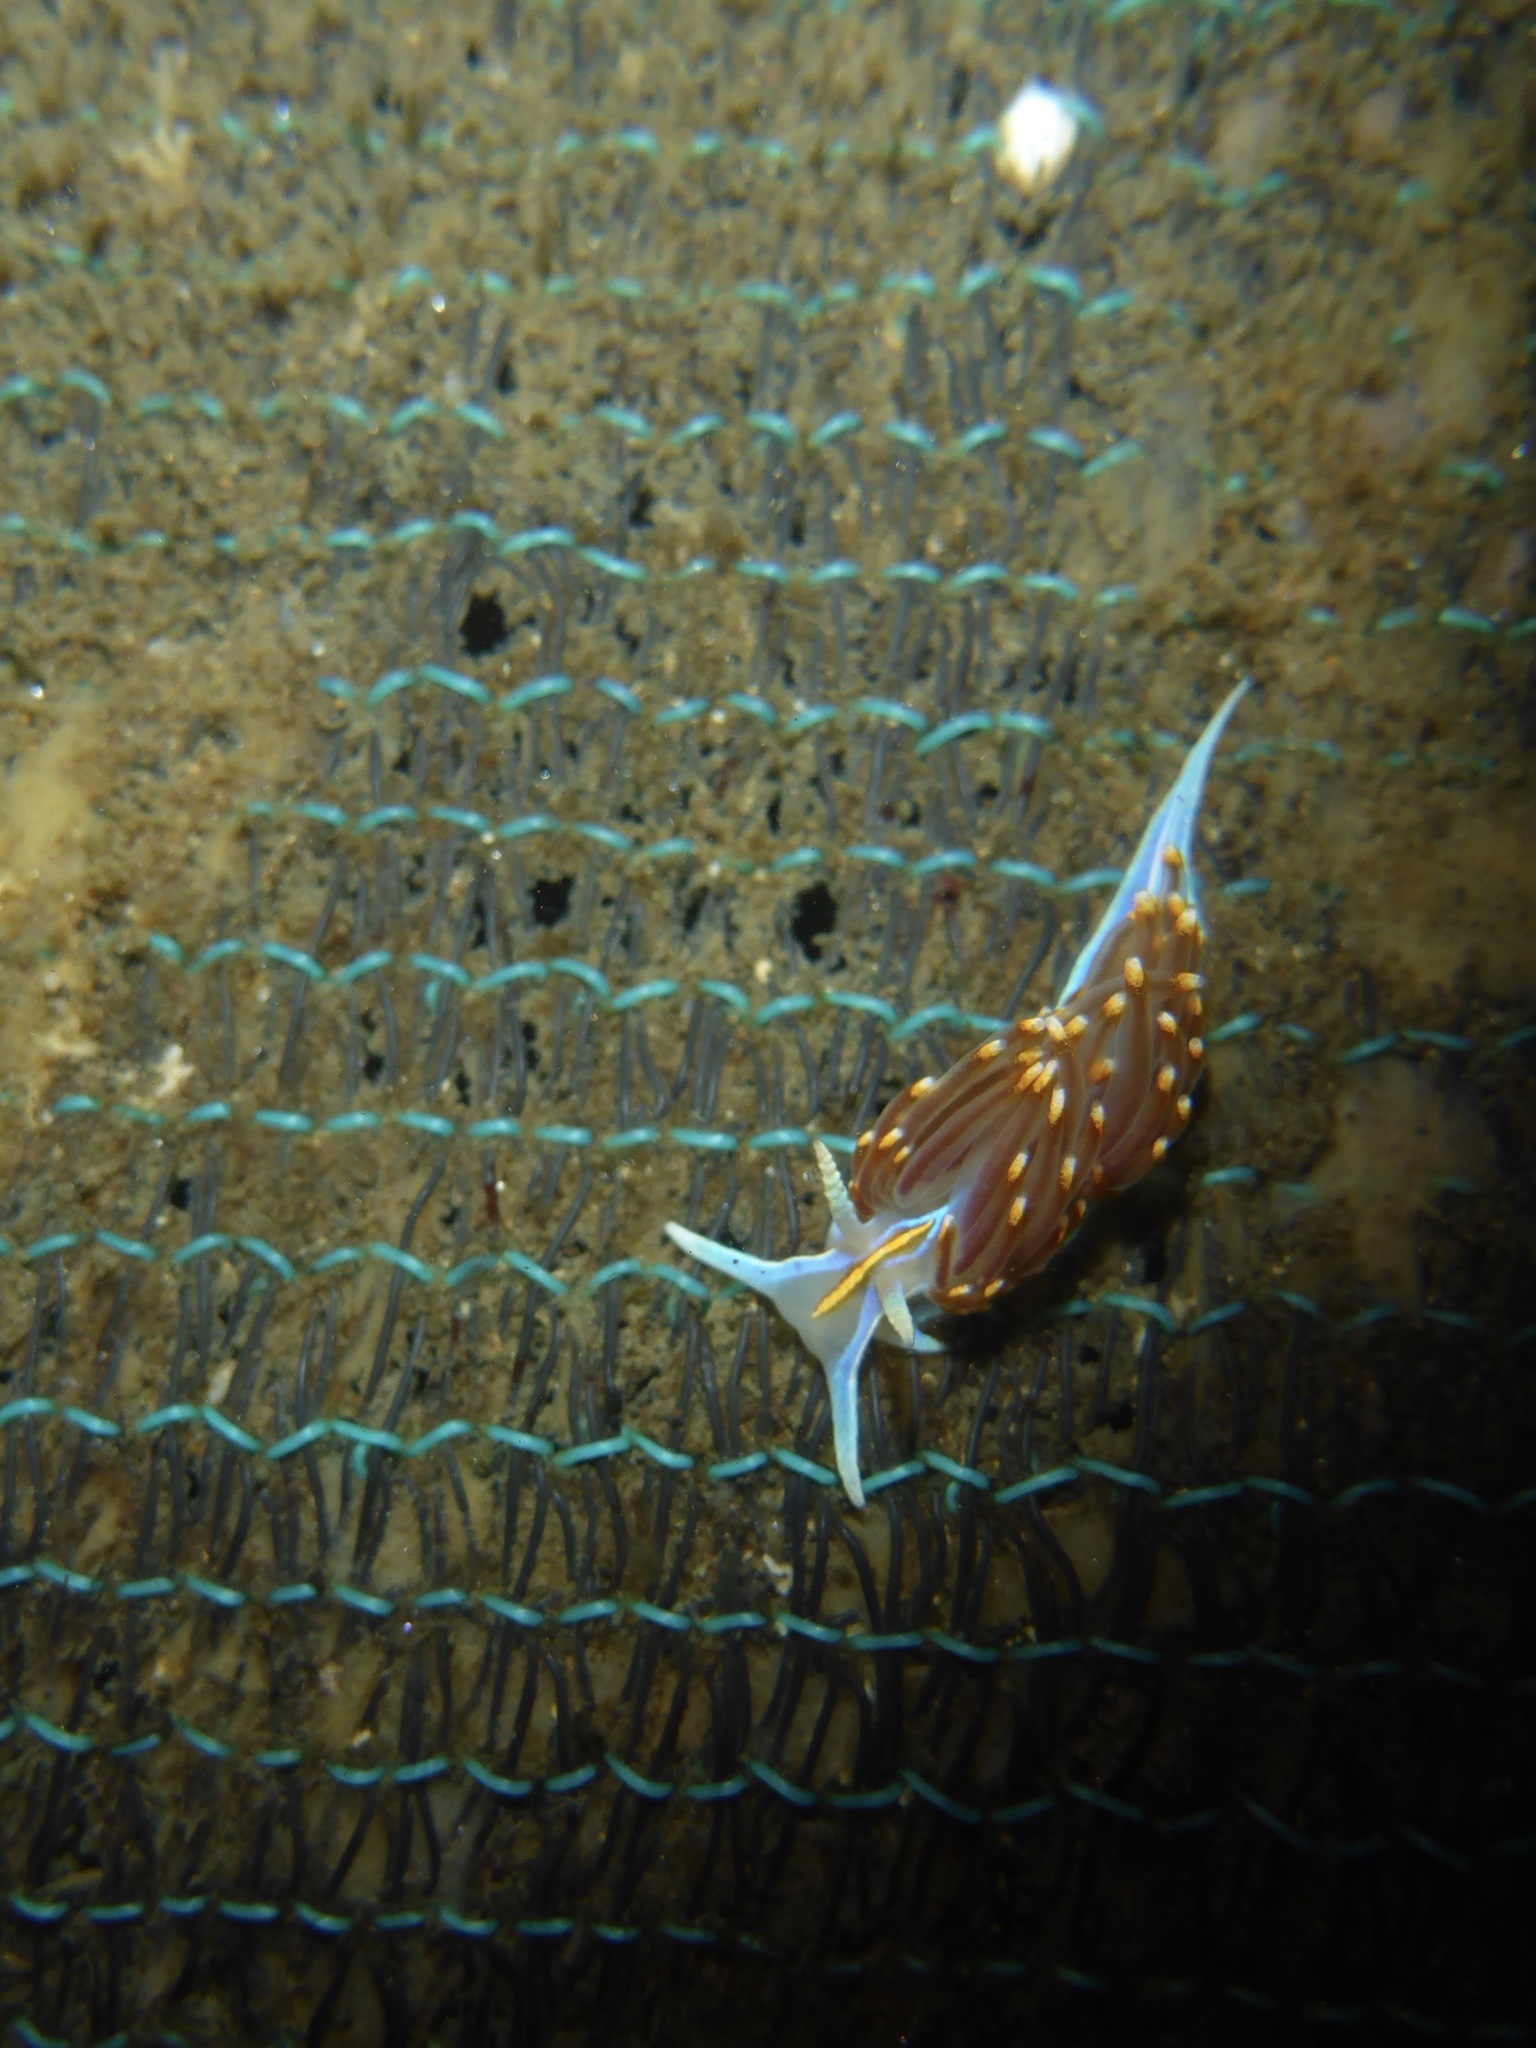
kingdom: Animalia
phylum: Mollusca
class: Gastropoda
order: Nudibranchia
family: Myrrhinidae
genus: Hermissenda
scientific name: Hermissenda opalescens
